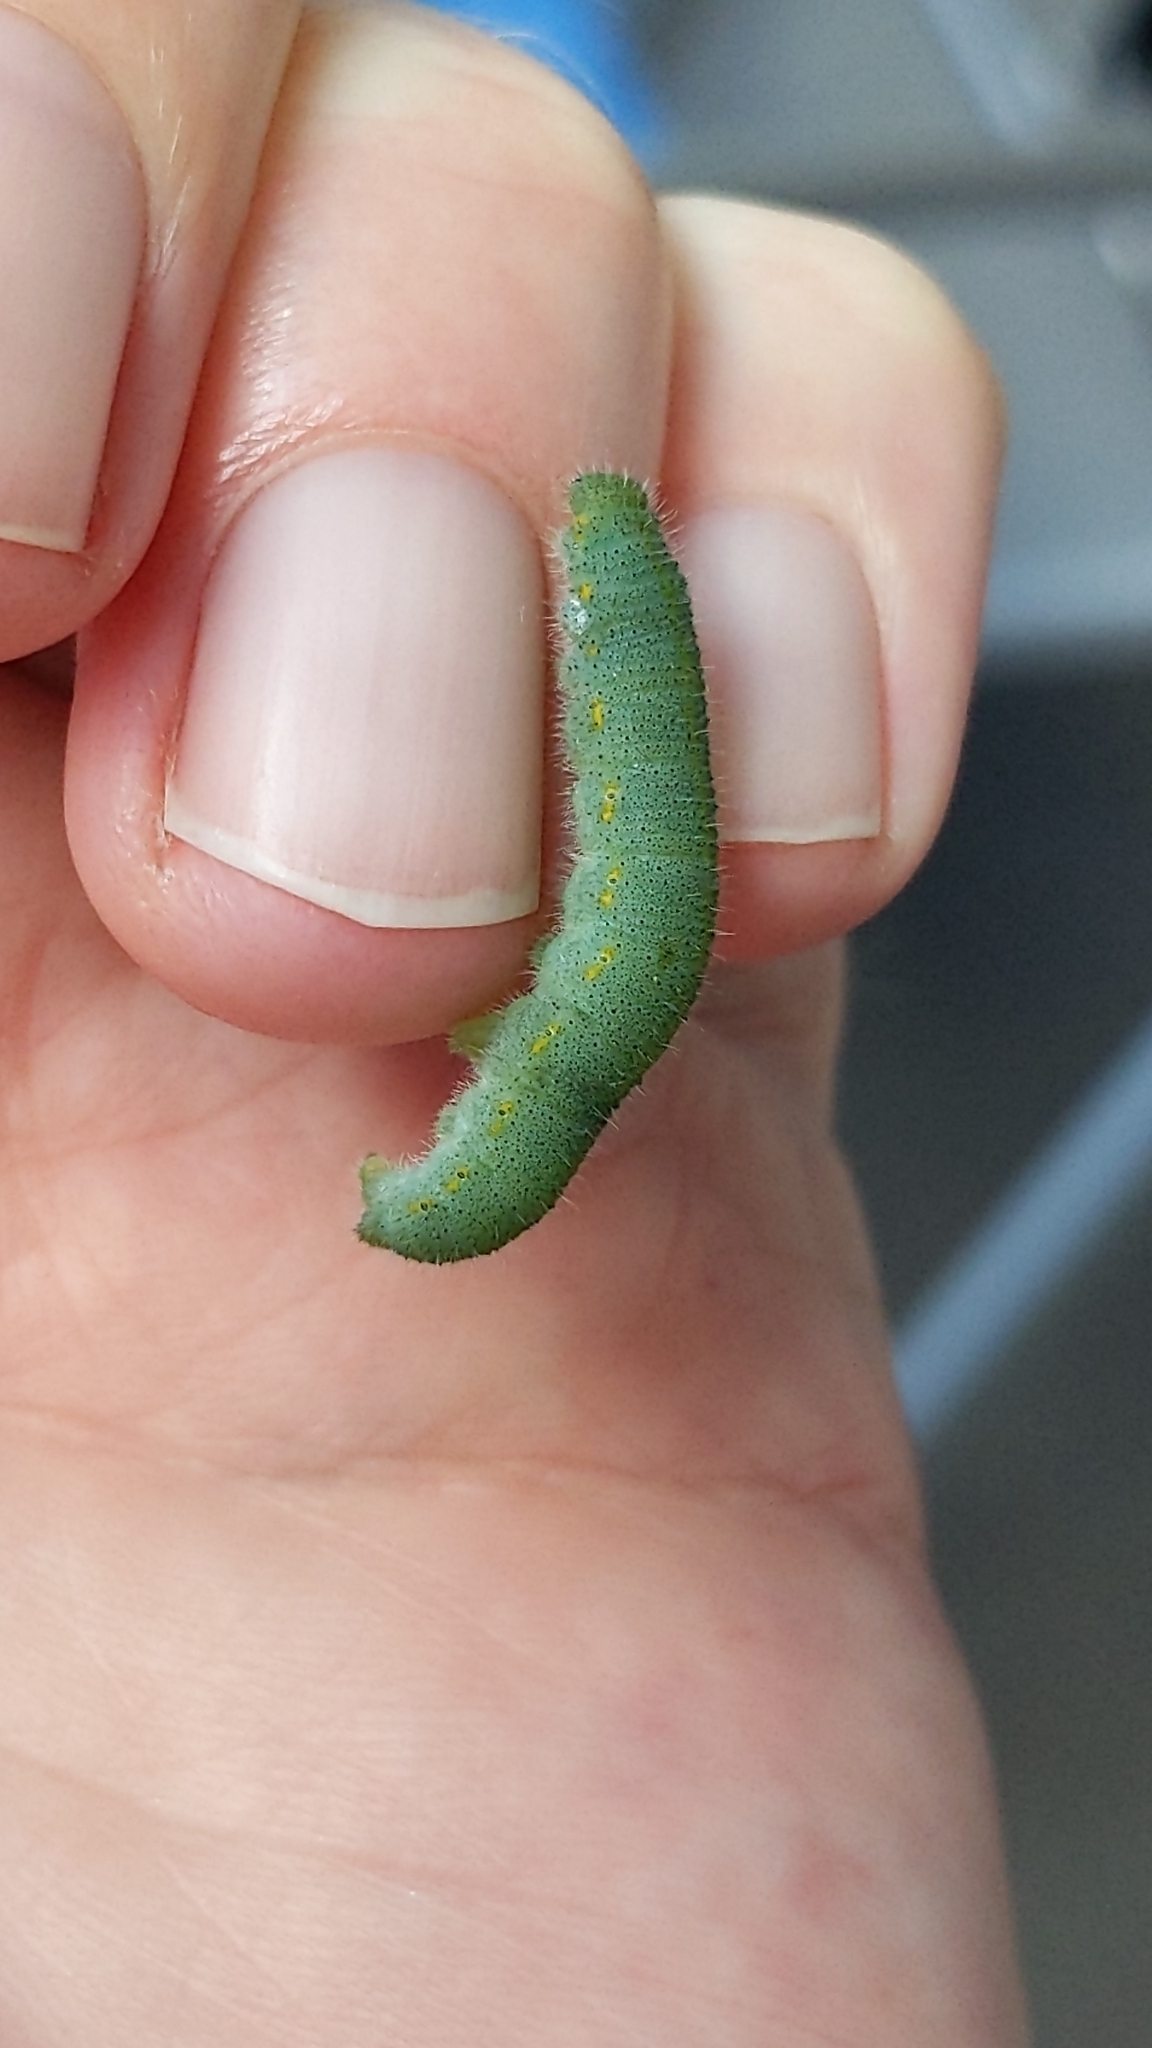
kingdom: Animalia
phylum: Arthropoda
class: Insecta
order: Lepidoptera
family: Pieridae
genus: Pieris
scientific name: Pieris rapae
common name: Small white
